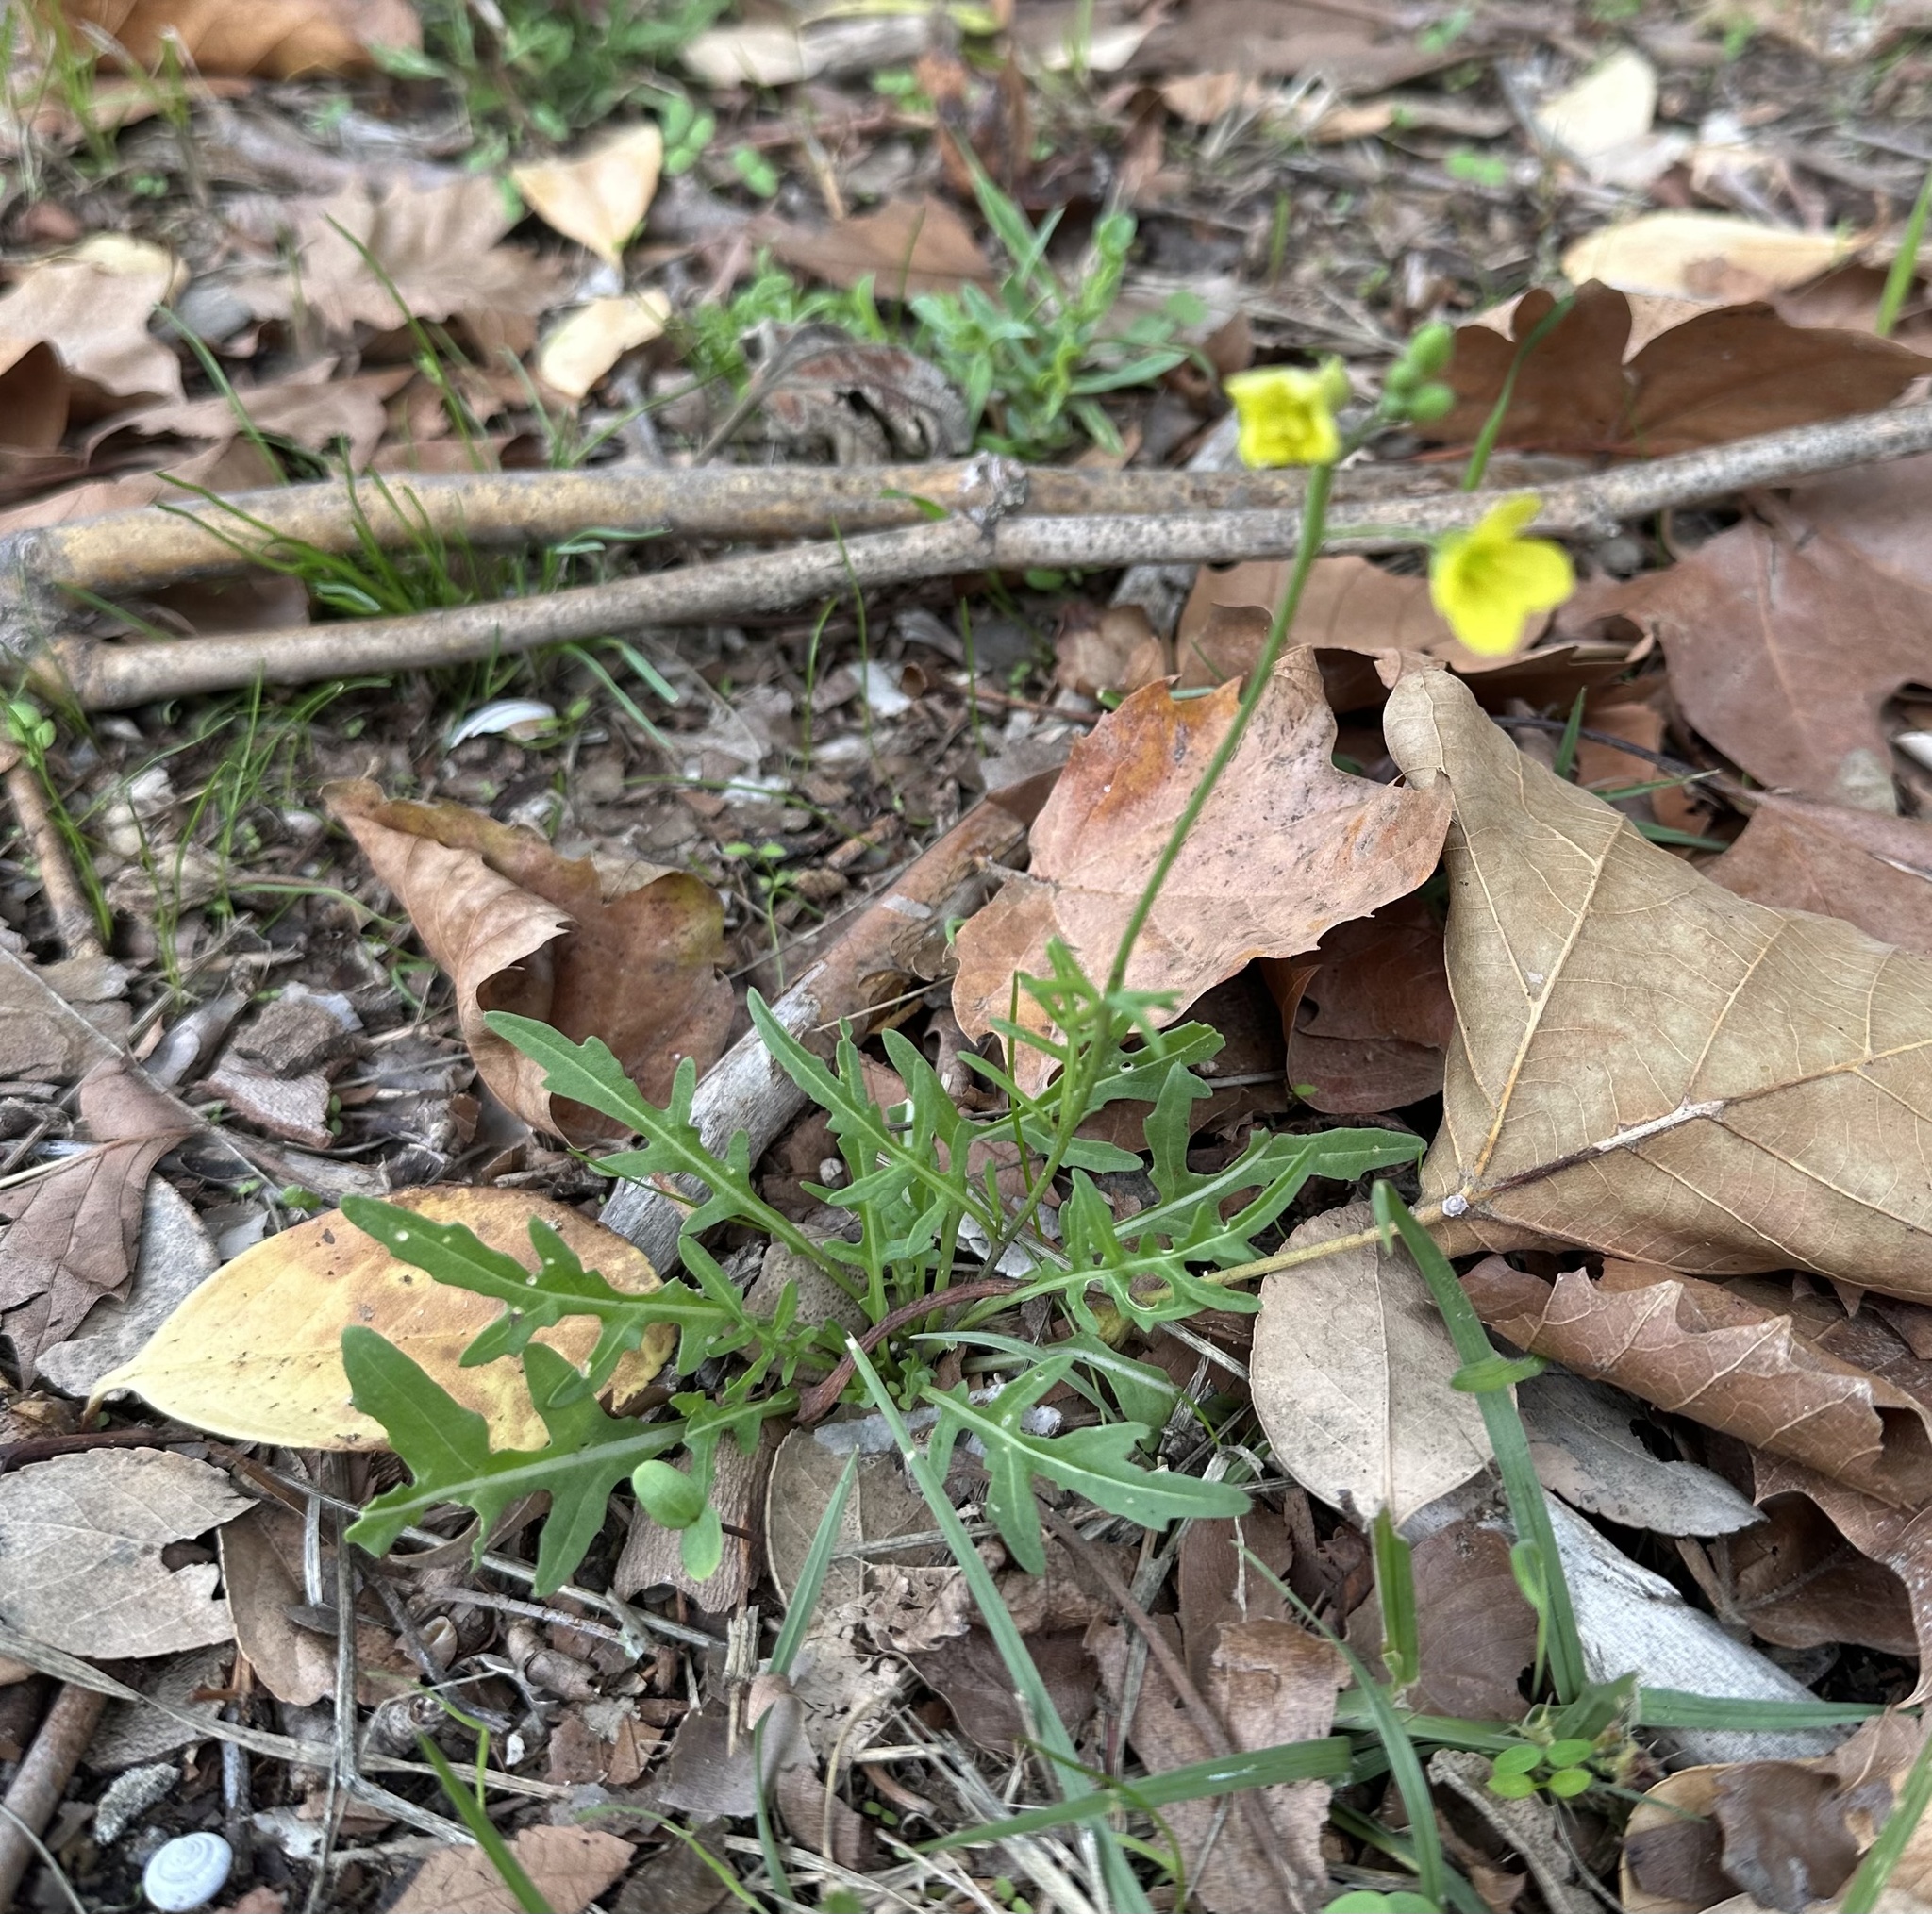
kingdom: Plantae
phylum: Tracheophyta
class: Magnoliopsida
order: Brassicales
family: Brassicaceae
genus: Diplotaxis
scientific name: Diplotaxis tenuifolia
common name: Perennial wall-rocket
